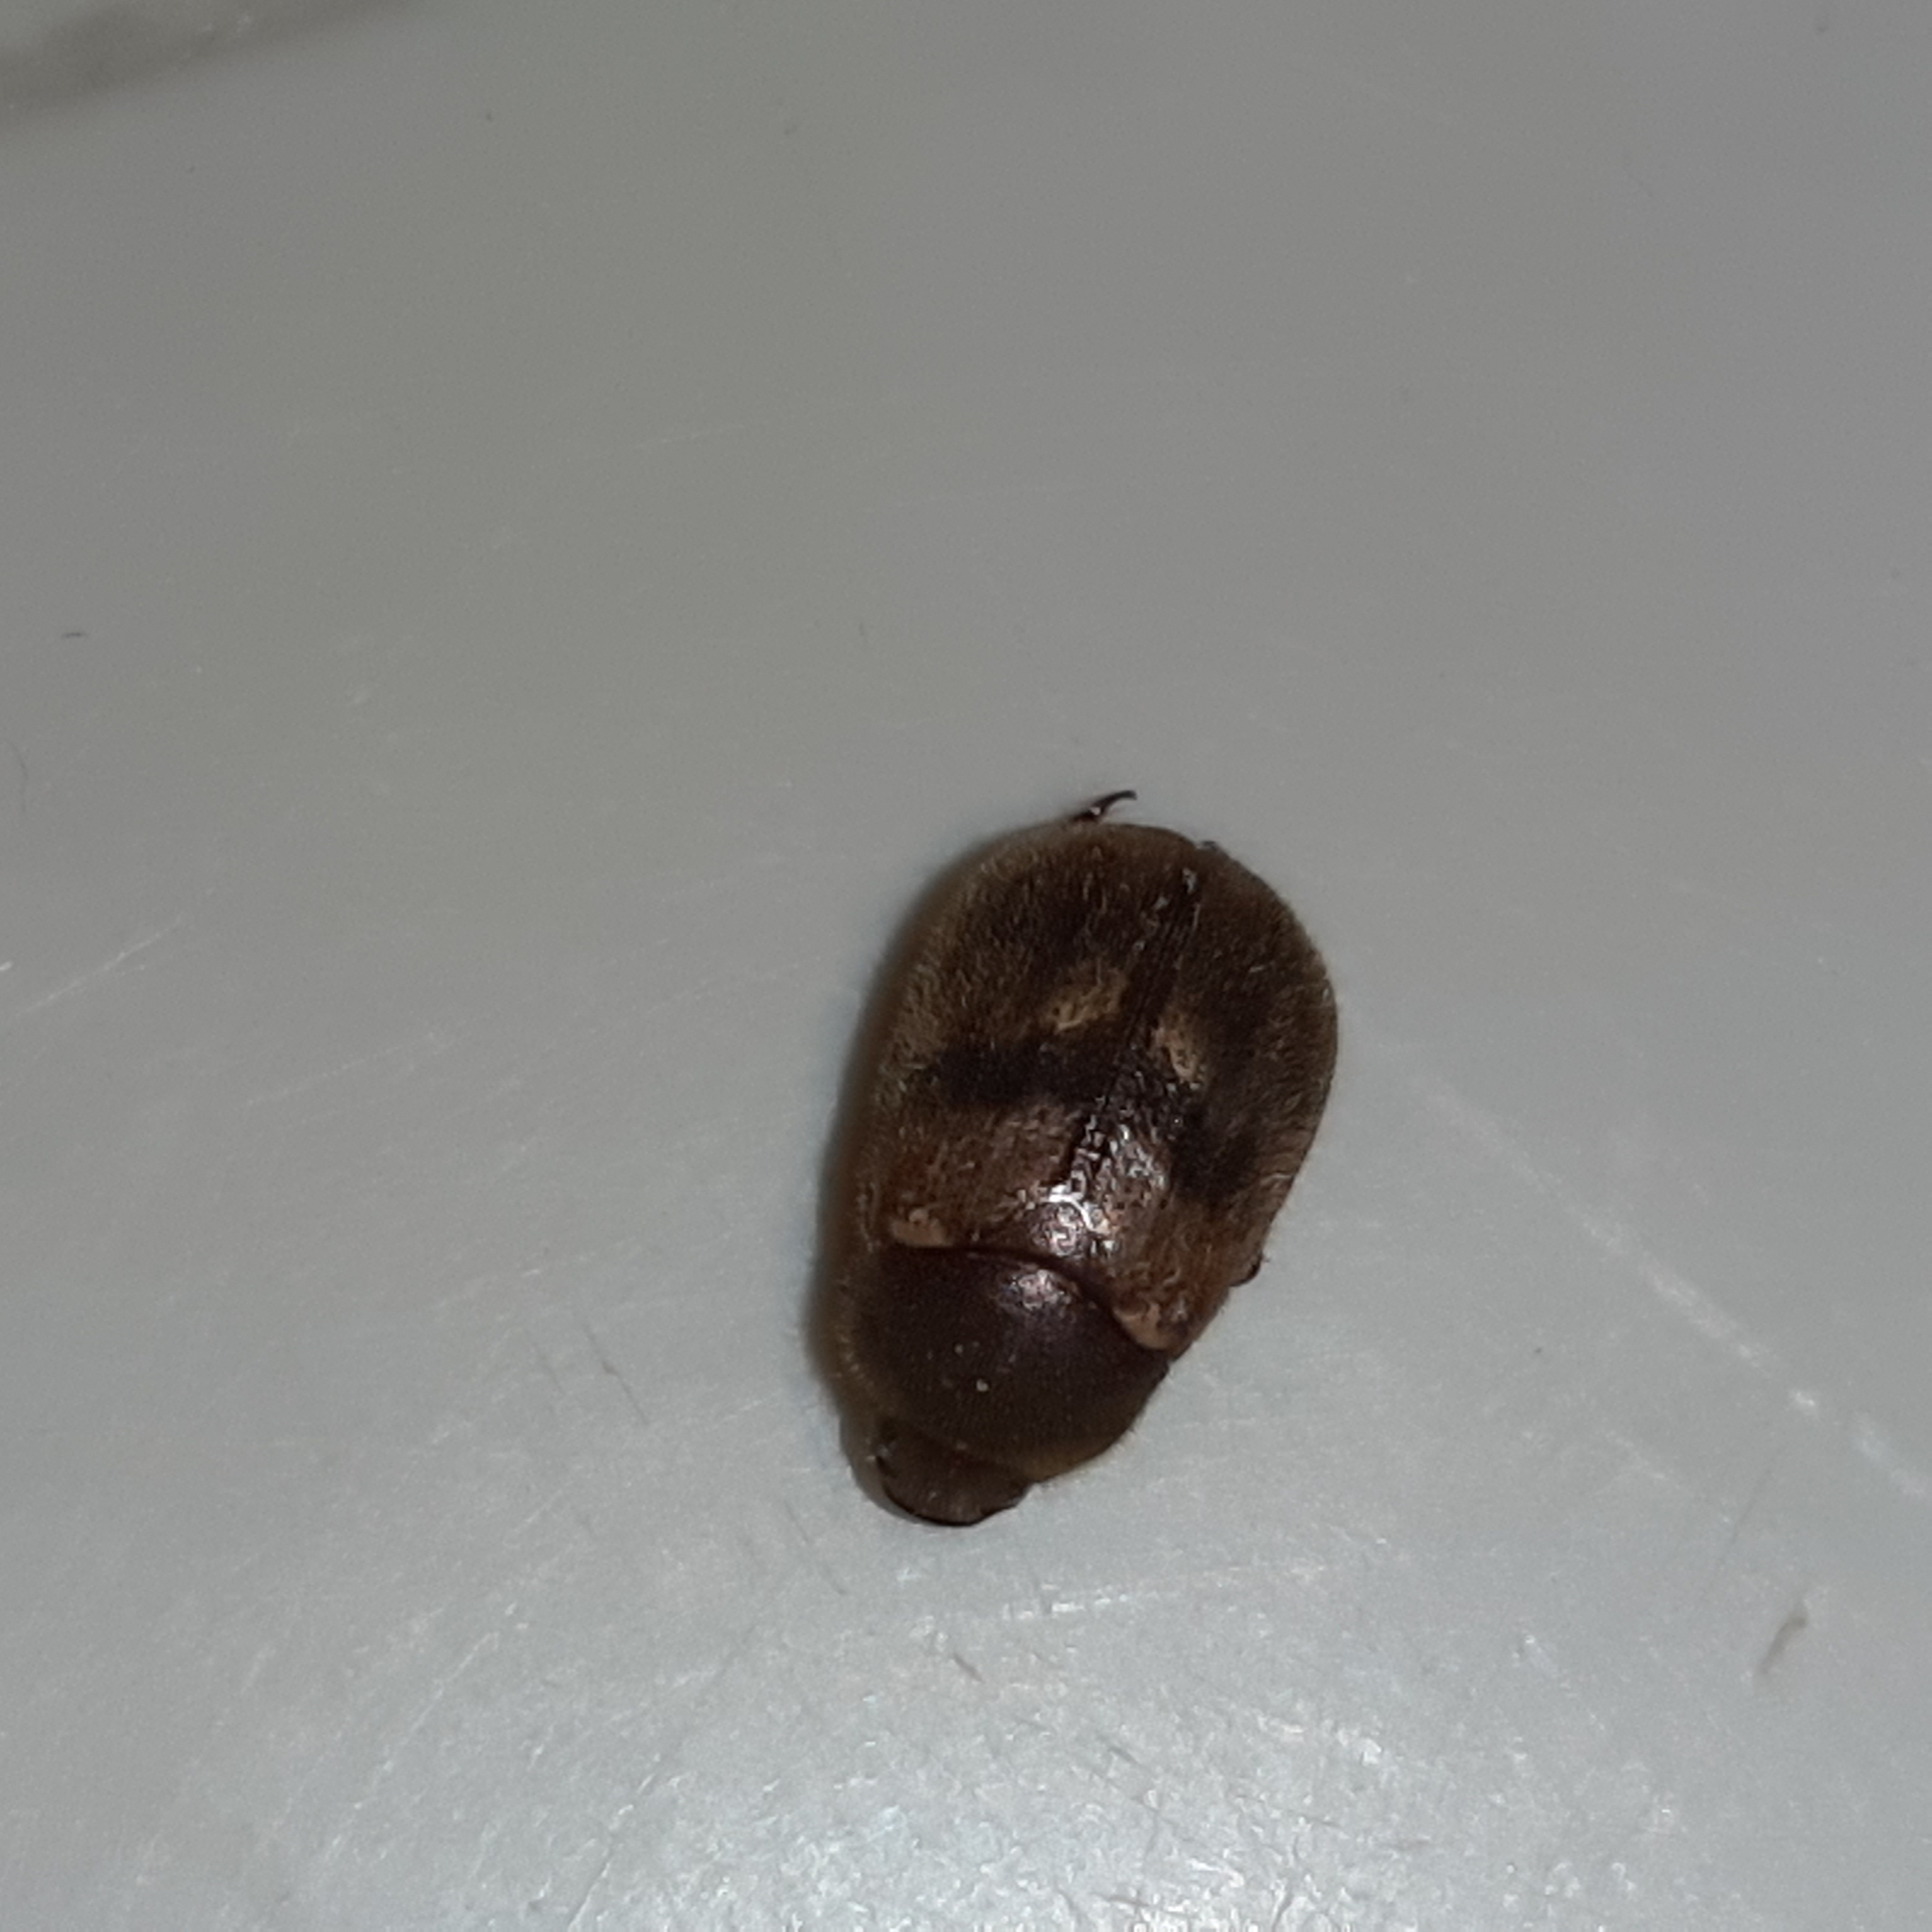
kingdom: Animalia
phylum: Arthropoda
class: Insecta
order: Coleoptera
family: Scarabaeidae
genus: Paranomala
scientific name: Paranomala eucoma
